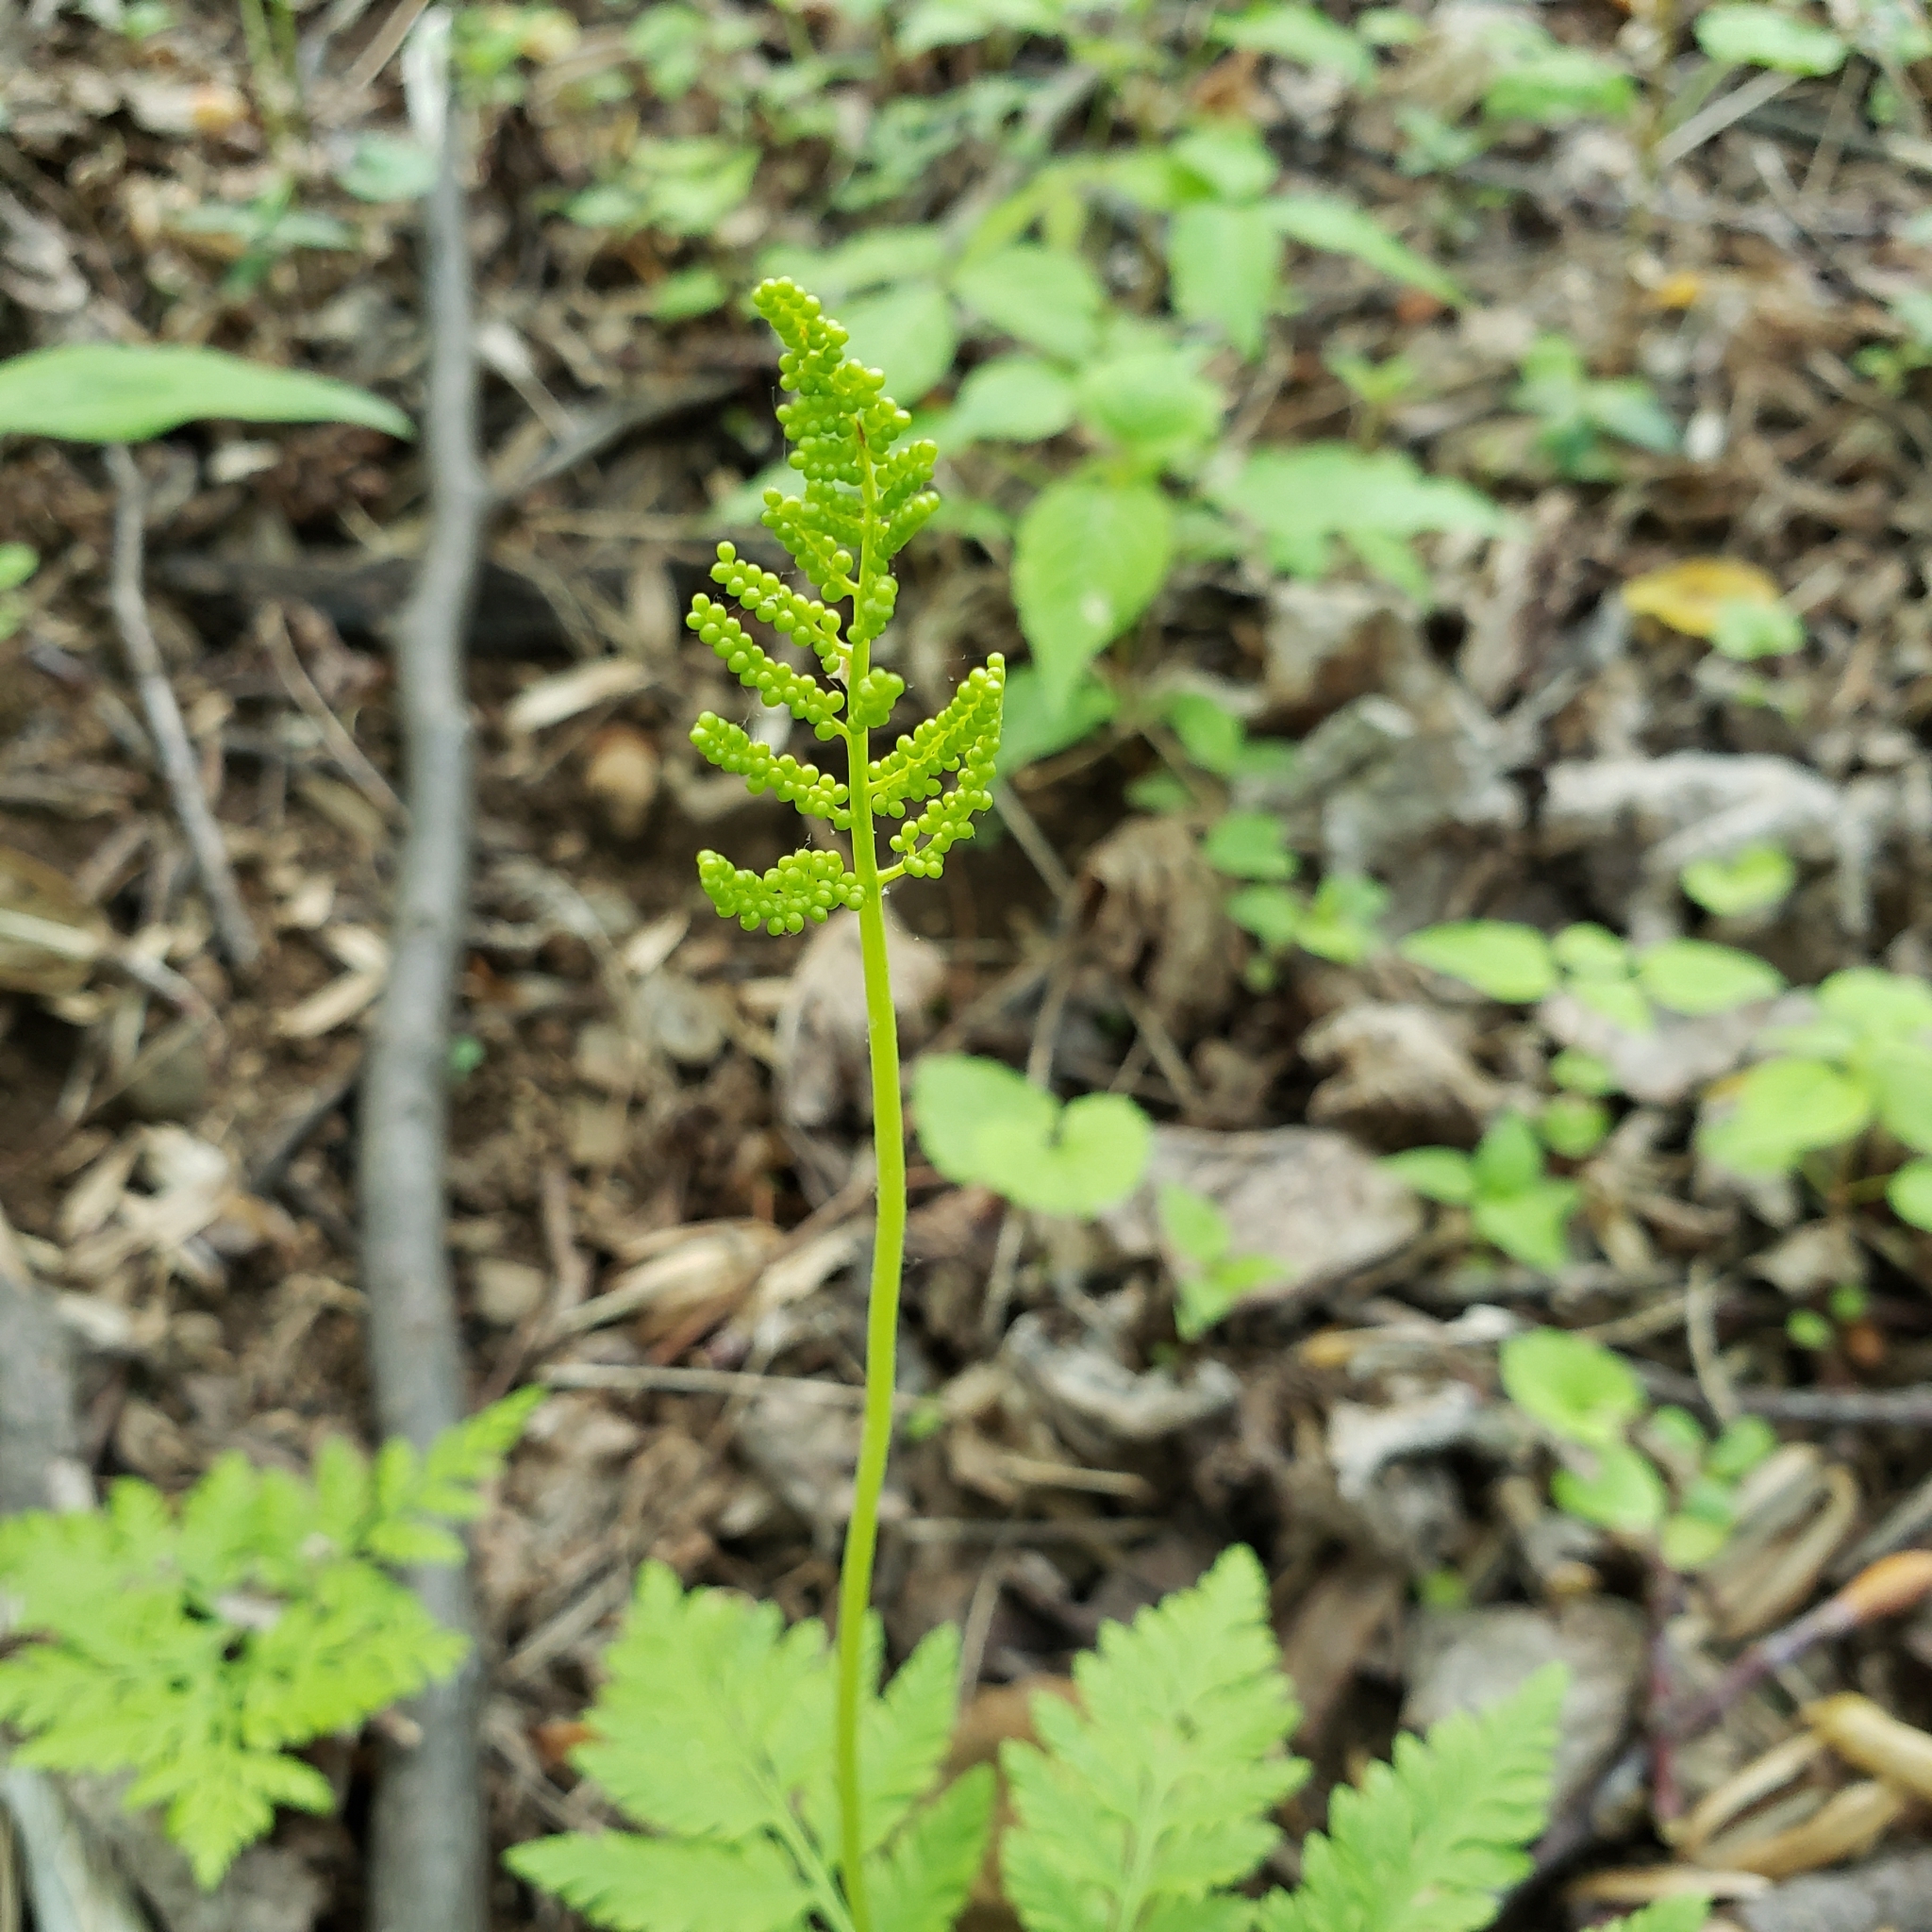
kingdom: Plantae
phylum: Tracheophyta
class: Polypodiopsida
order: Ophioglossales
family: Ophioglossaceae
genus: Botrypus
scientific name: Botrypus virginianus
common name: Common grapefern
